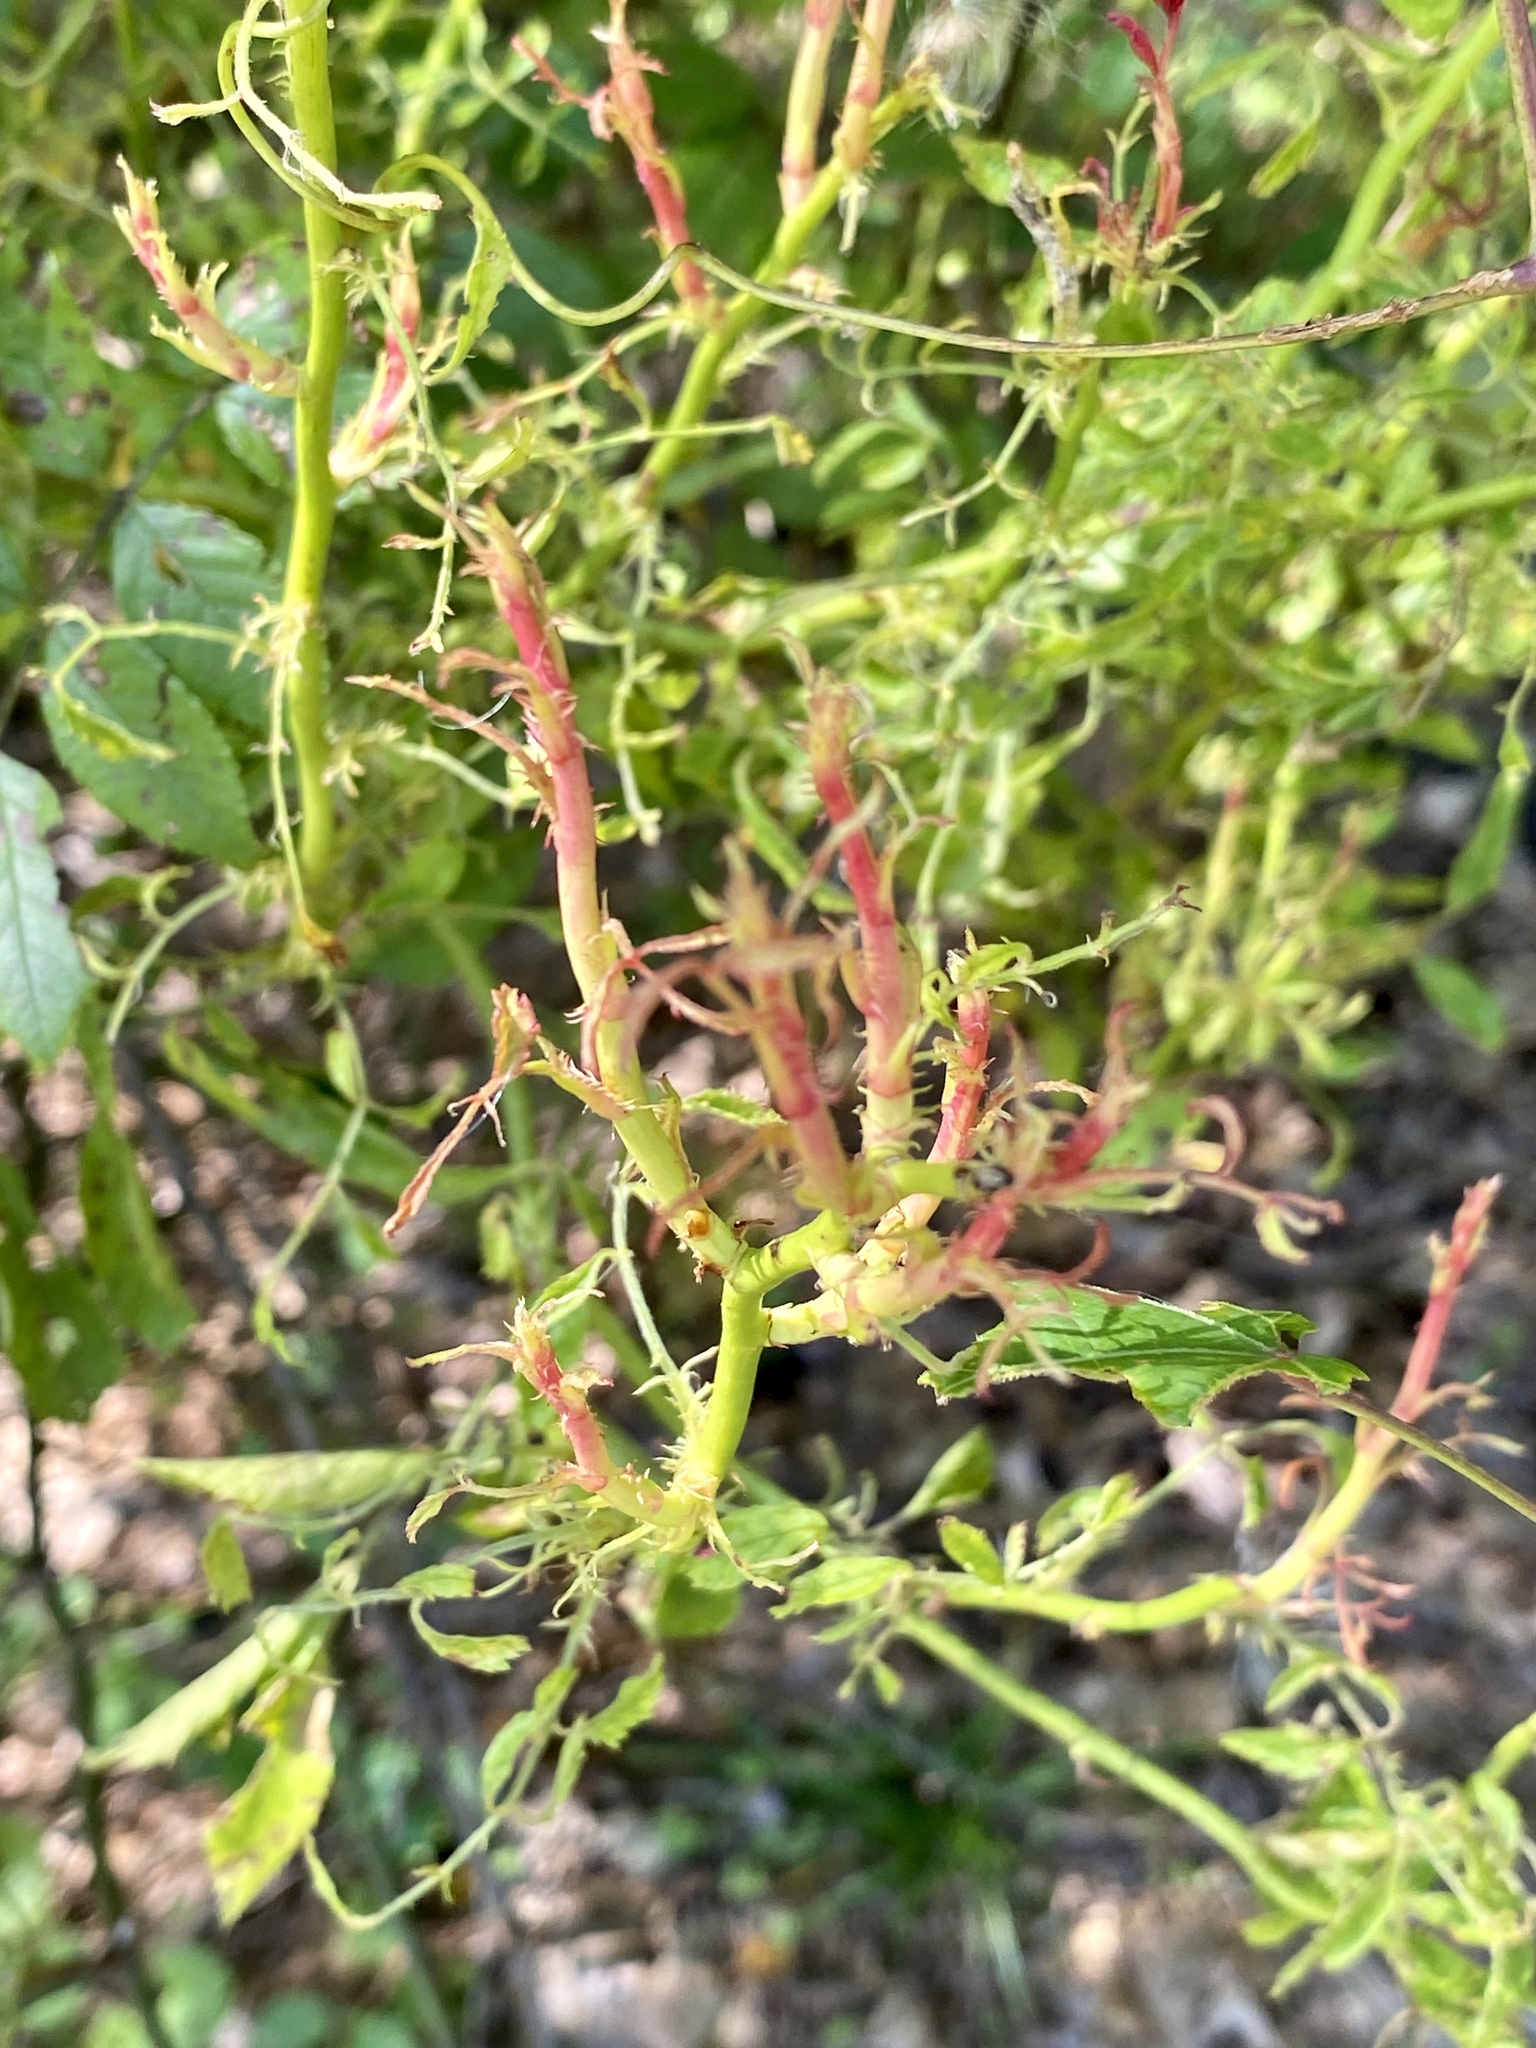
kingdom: Viruses
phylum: Negarnaviricota
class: Ellioviricetes
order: Bunyavirales
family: Fimoviridae
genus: Emaravirus
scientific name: Emaravirus rosae
